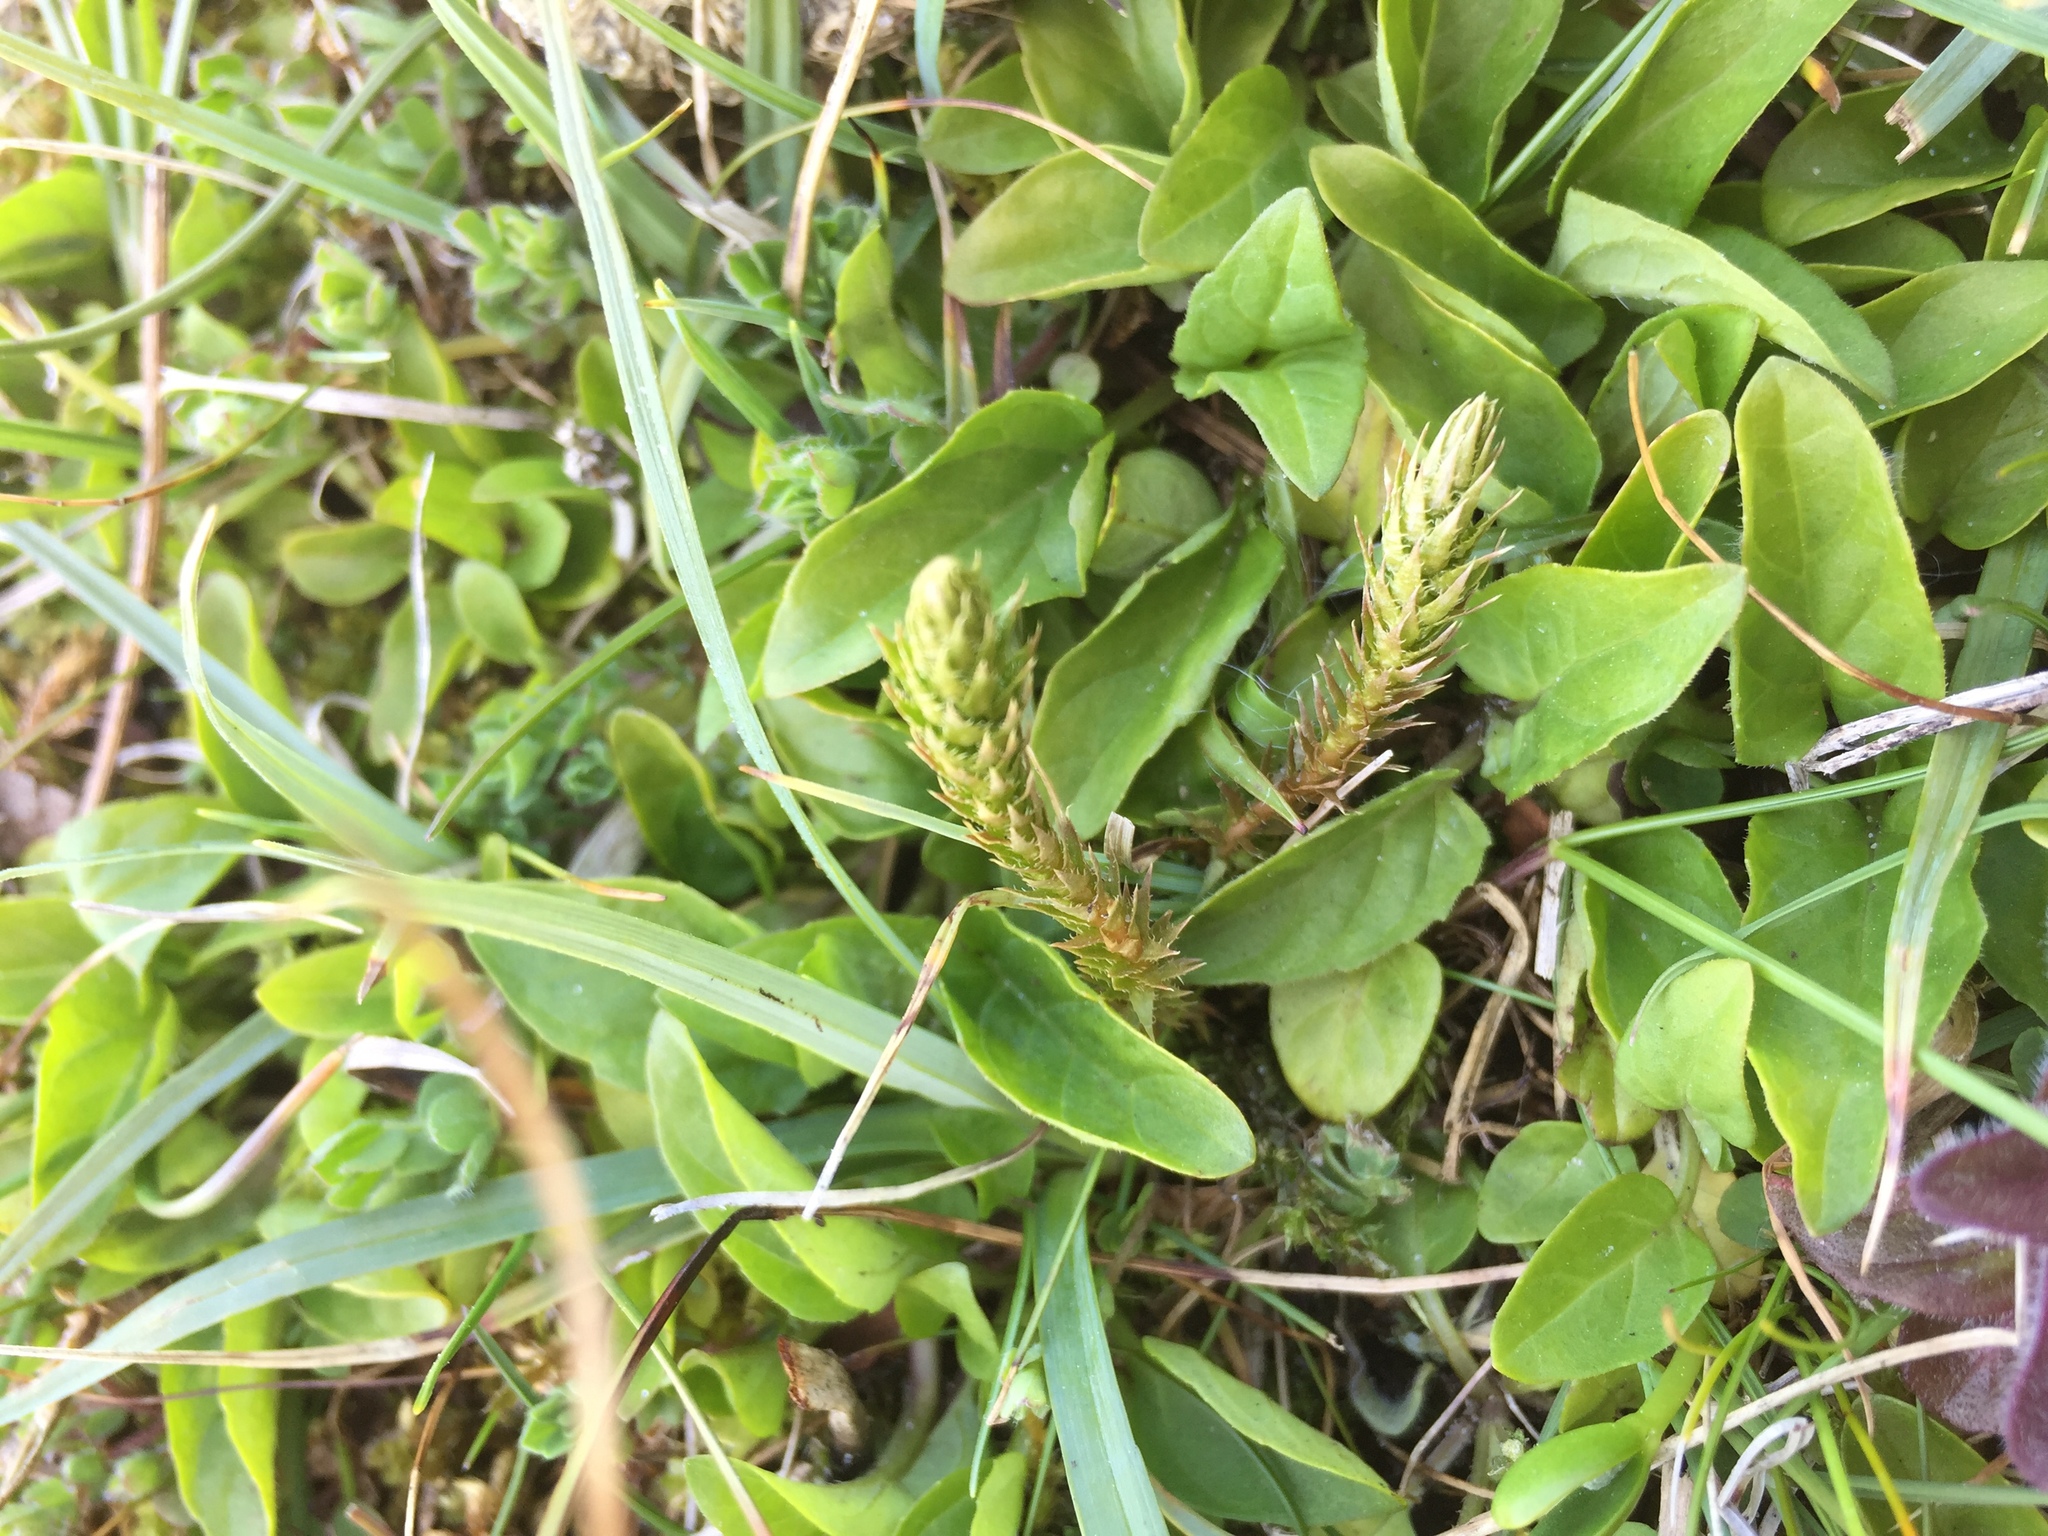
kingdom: Plantae
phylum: Tracheophyta
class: Lycopodiopsida
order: Selaginellales
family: Selaginellaceae
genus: Selaginella
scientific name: Selaginella selaginoides
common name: Prickly mountain-moss
